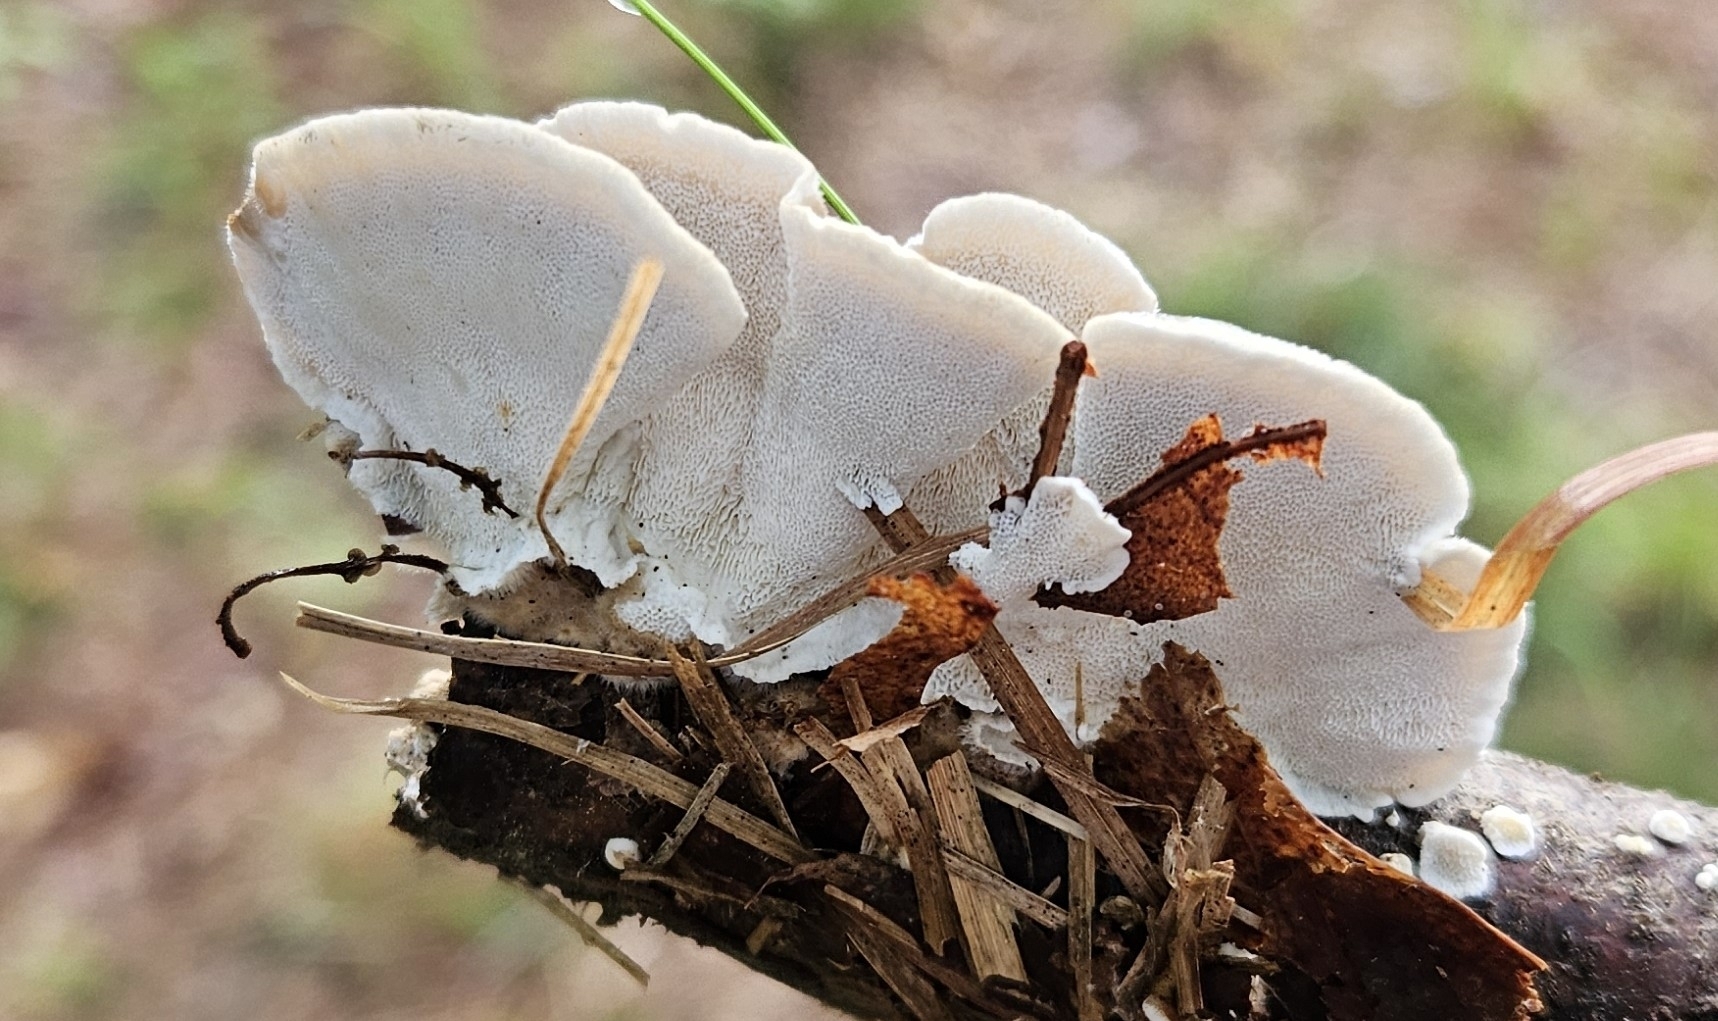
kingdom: Fungi
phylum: Basidiomycota
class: Agaricomycetes
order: Polyporales
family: Polyporaceae
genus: Trametes
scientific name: Trametes versicolor
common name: Turkeytail
